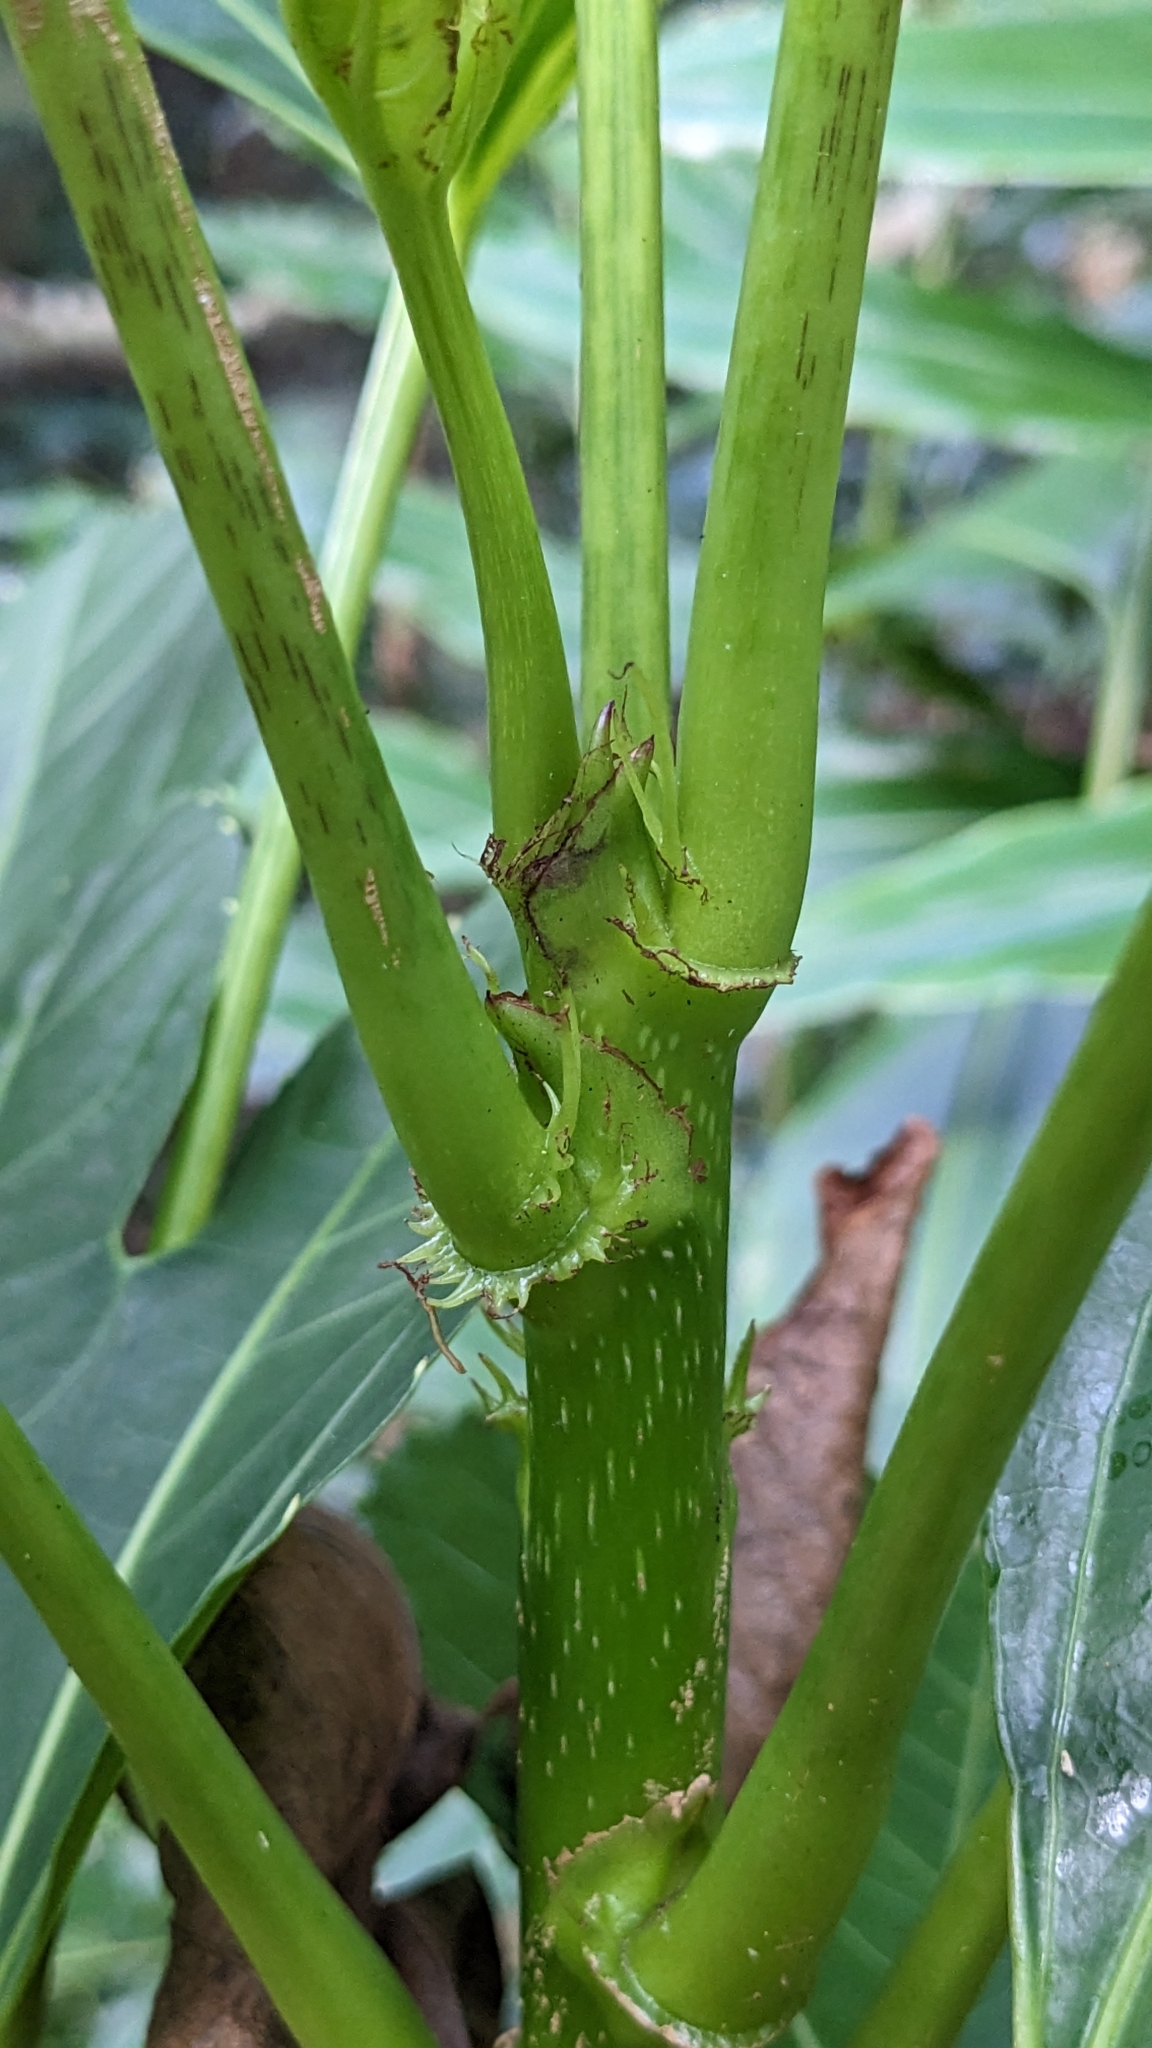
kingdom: Plantae
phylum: Tracheophyta
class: Magnoliopsida
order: Apiales
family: Araliaceae
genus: Osmoxylon
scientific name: Osmoxylon pectinatum
